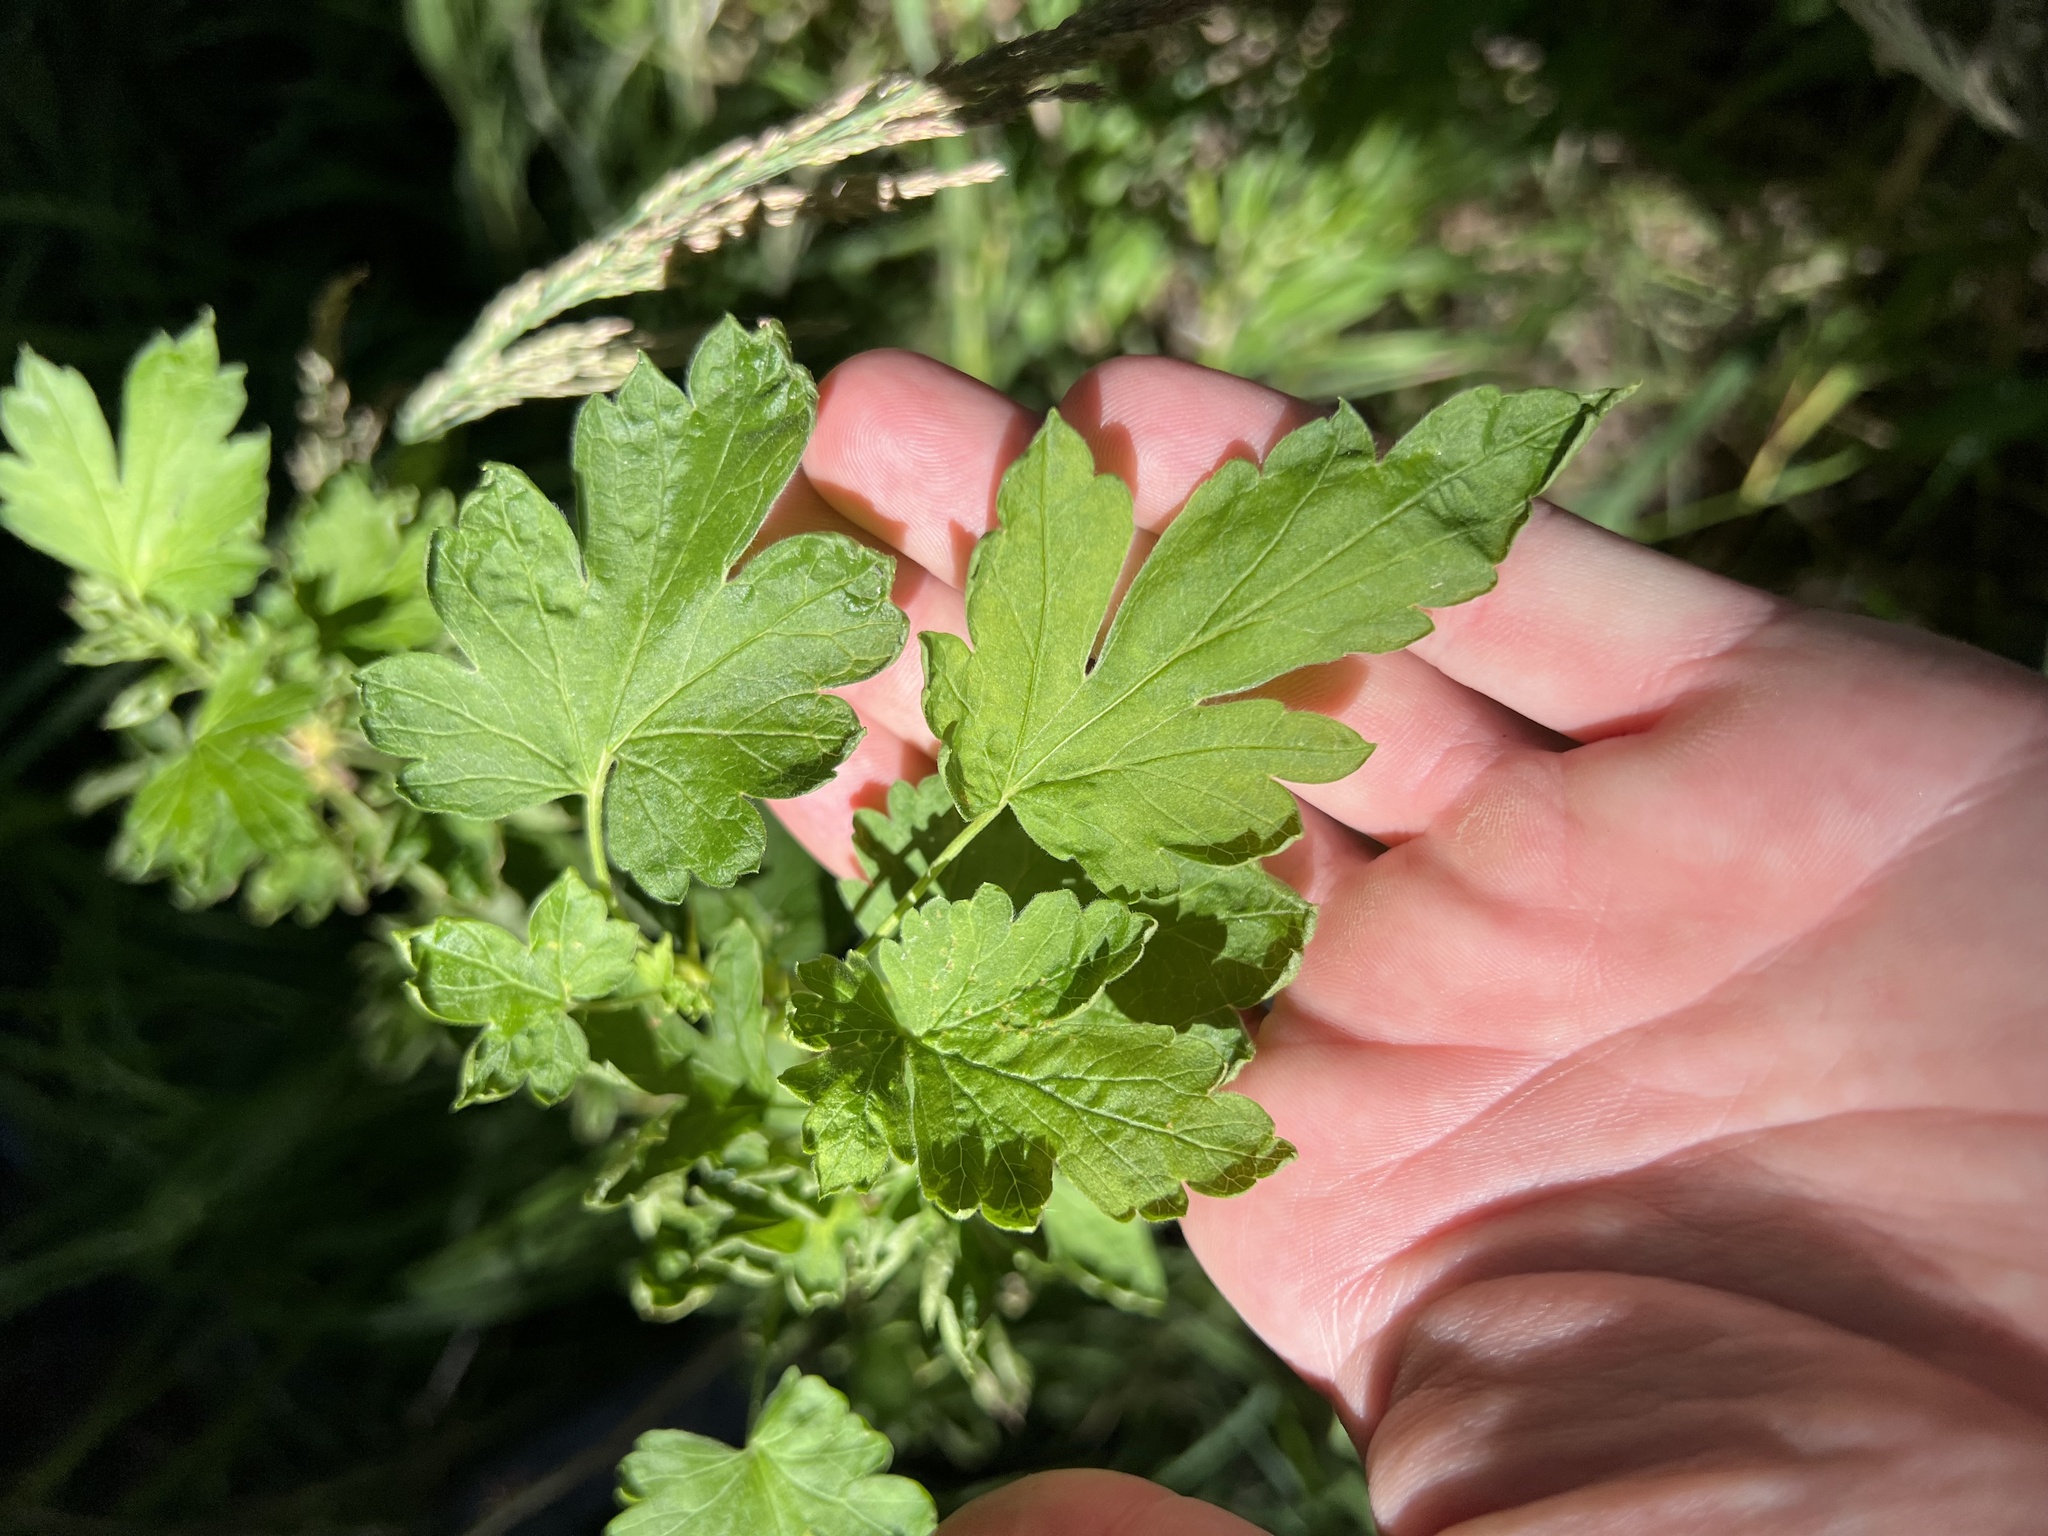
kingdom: Plantae
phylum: Tracheophyta
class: Magnoliopsida
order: Saxifragales
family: Grossulariaceae
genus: Ribes
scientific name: Ribes inerme
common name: White-stem gooseberry
